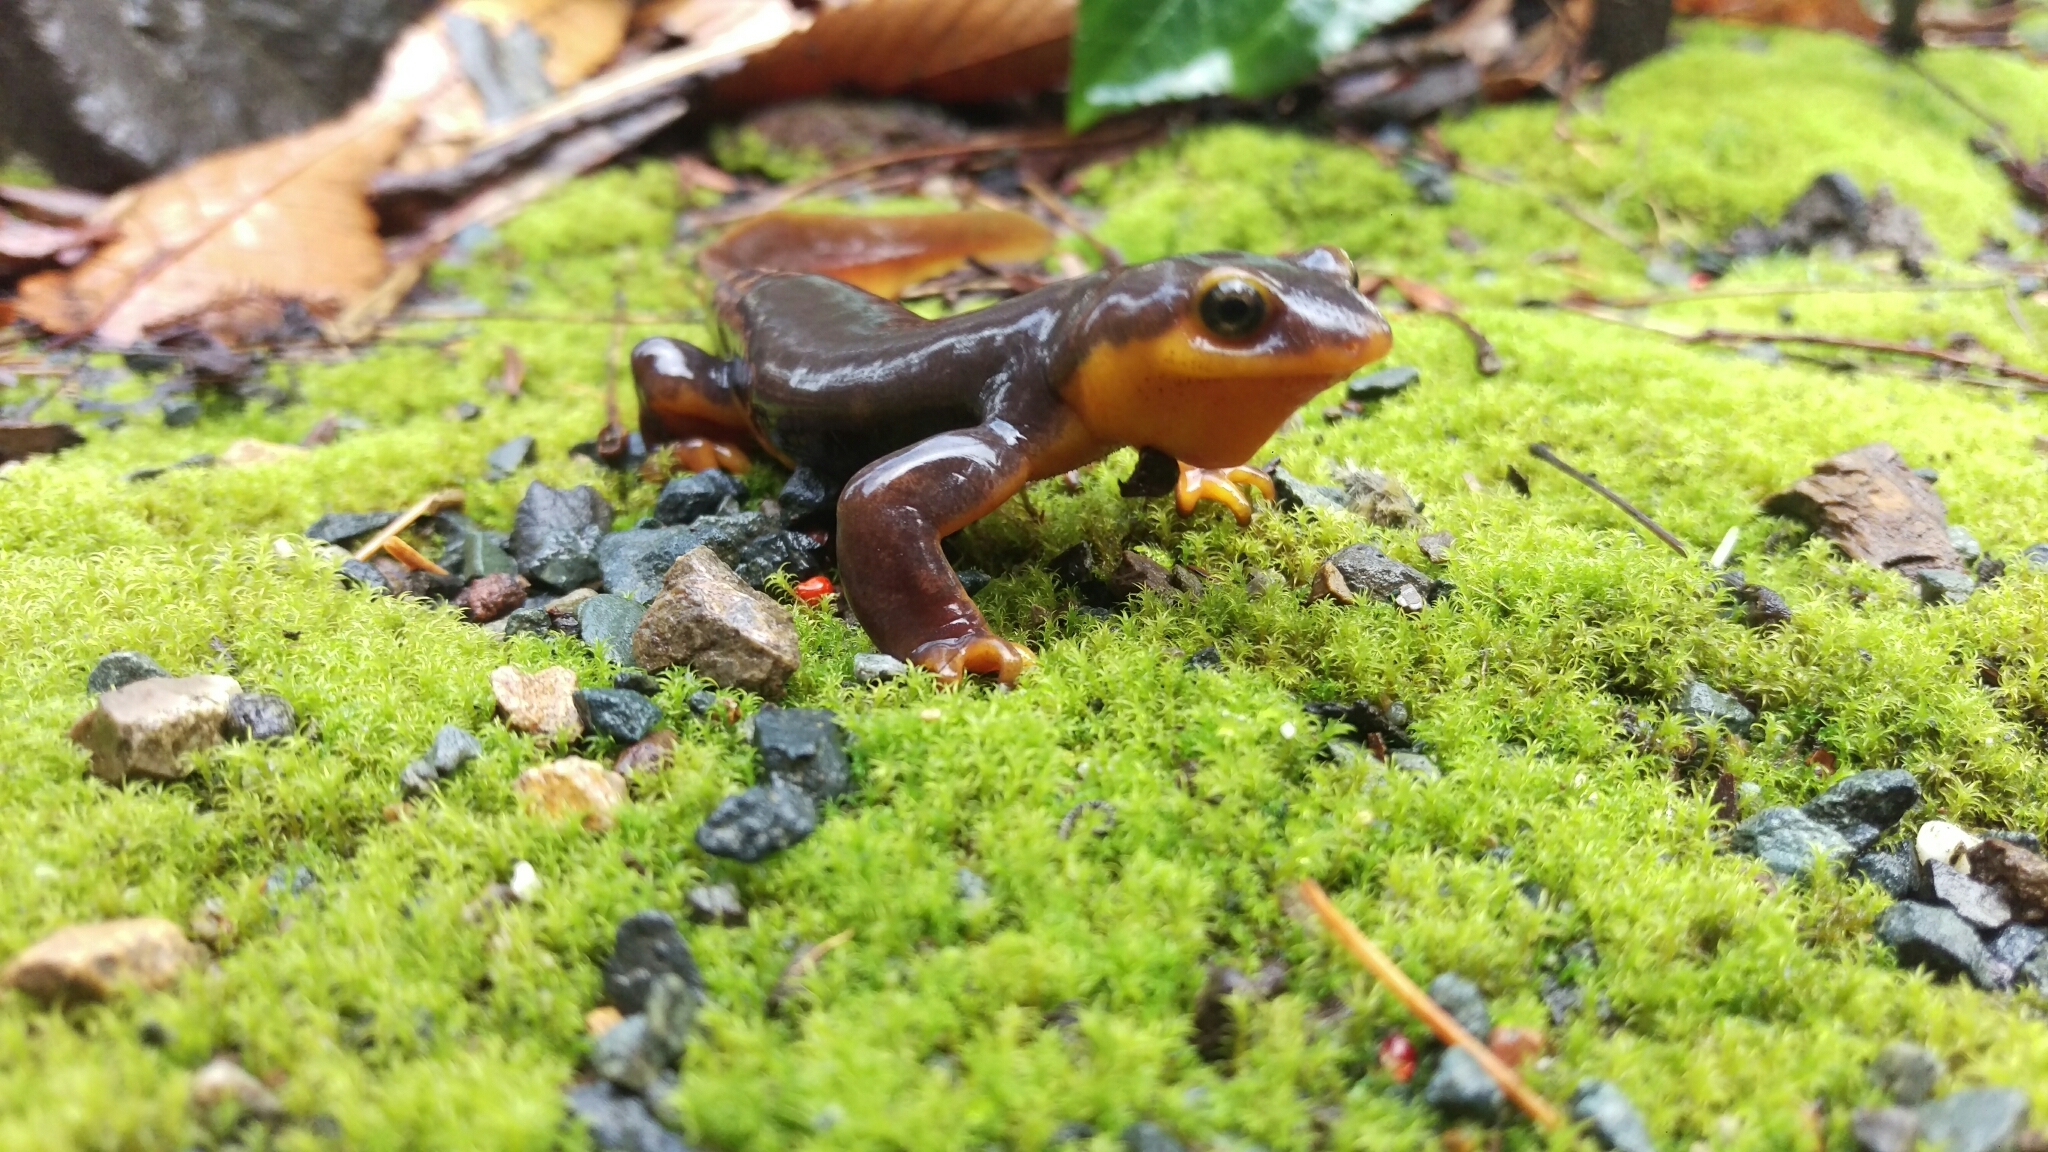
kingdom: Animalia
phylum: Chordata
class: Amphibia
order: Caudata
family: Salamandridae
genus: Taricha
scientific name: Taricha torosa
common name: California newt
